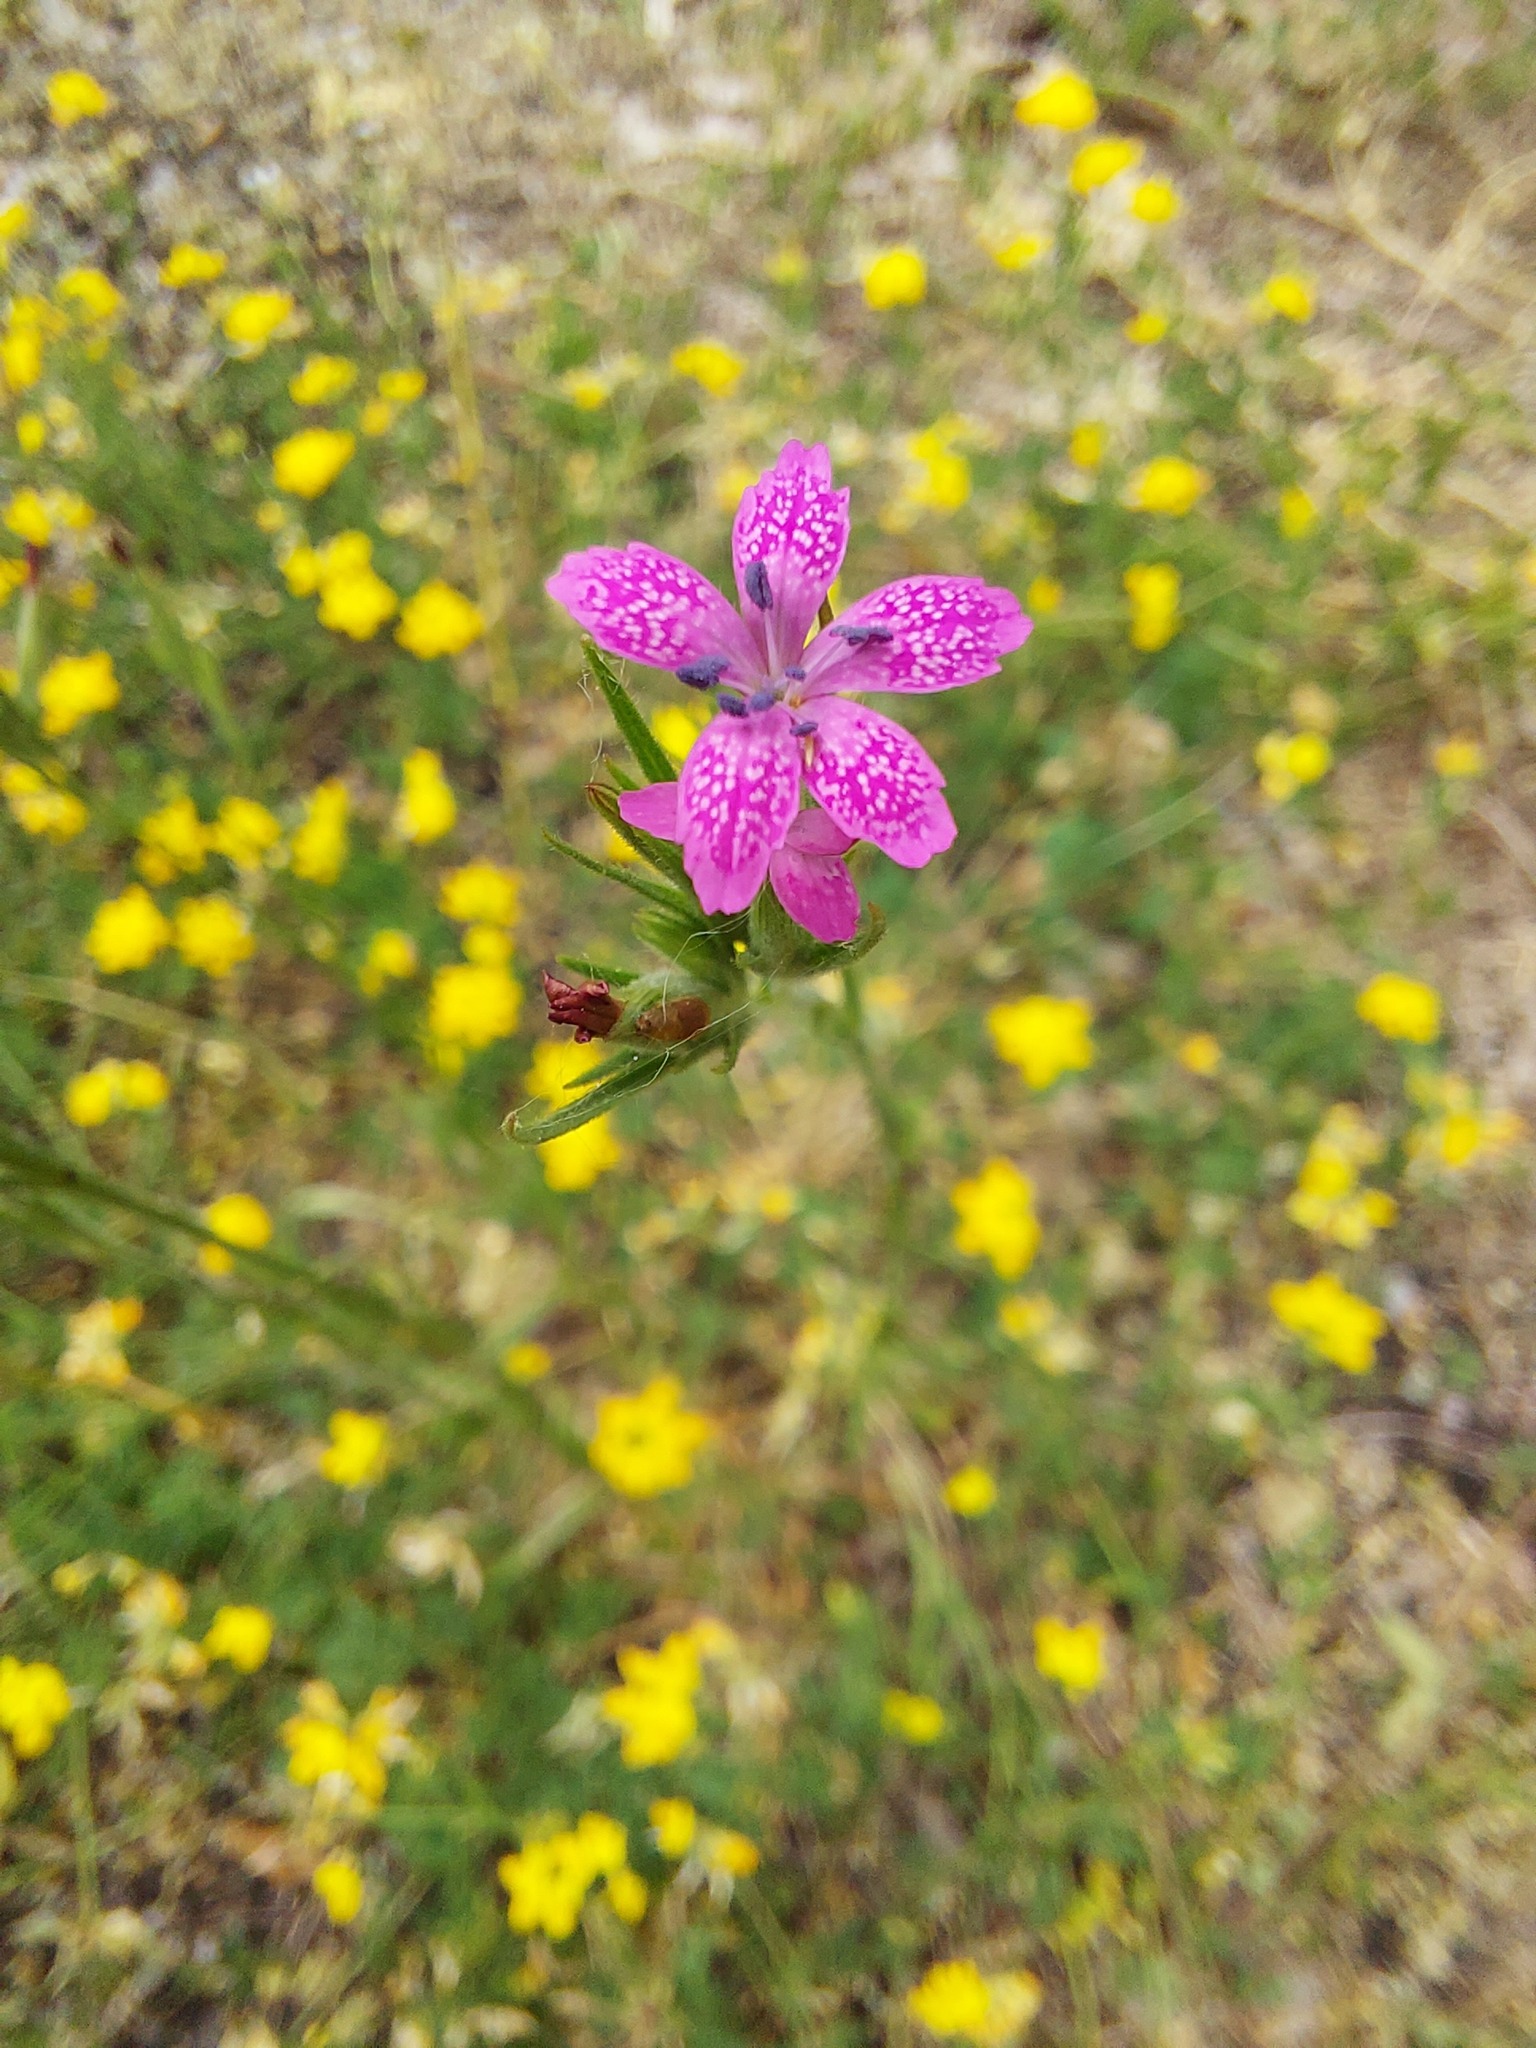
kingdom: Plantae
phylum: Tracheophyta
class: Magnoliopsida
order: Caryophyllales
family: Caryophyllaceae
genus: Dianthus
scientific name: Dianthus armeria
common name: Deptford pink
